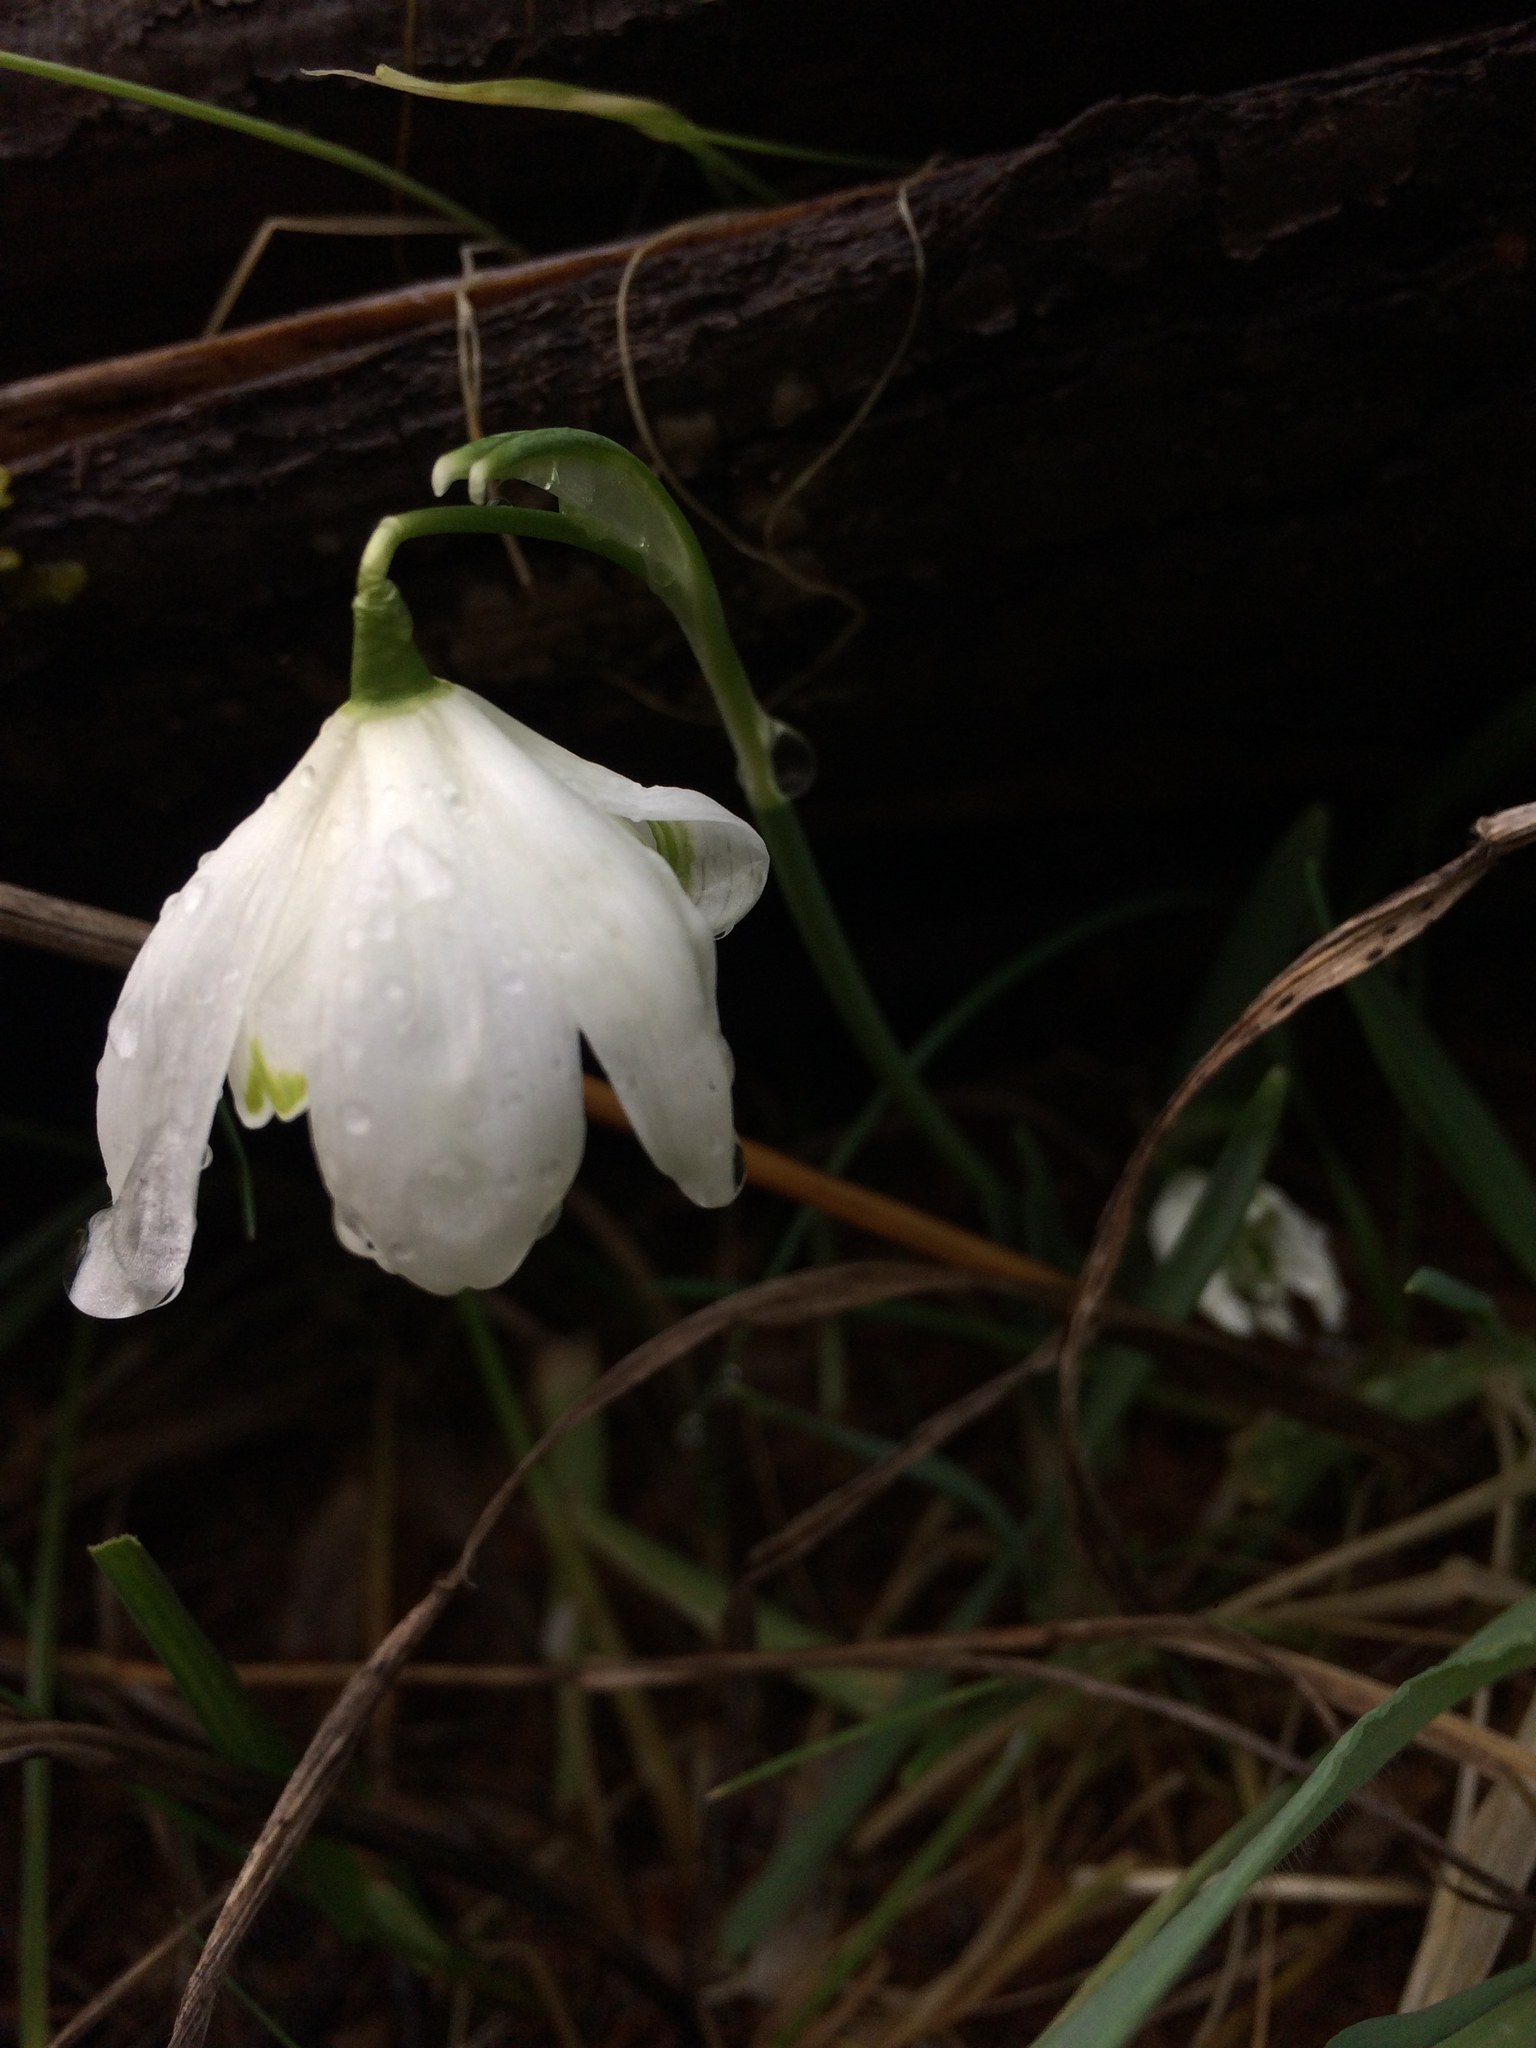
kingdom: Plantae
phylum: Tracheophyta
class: Liliopsida
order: Asparagales
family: Amaryllidaceae
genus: Galanthus
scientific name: Galanthus nivalis
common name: Snowdrop
